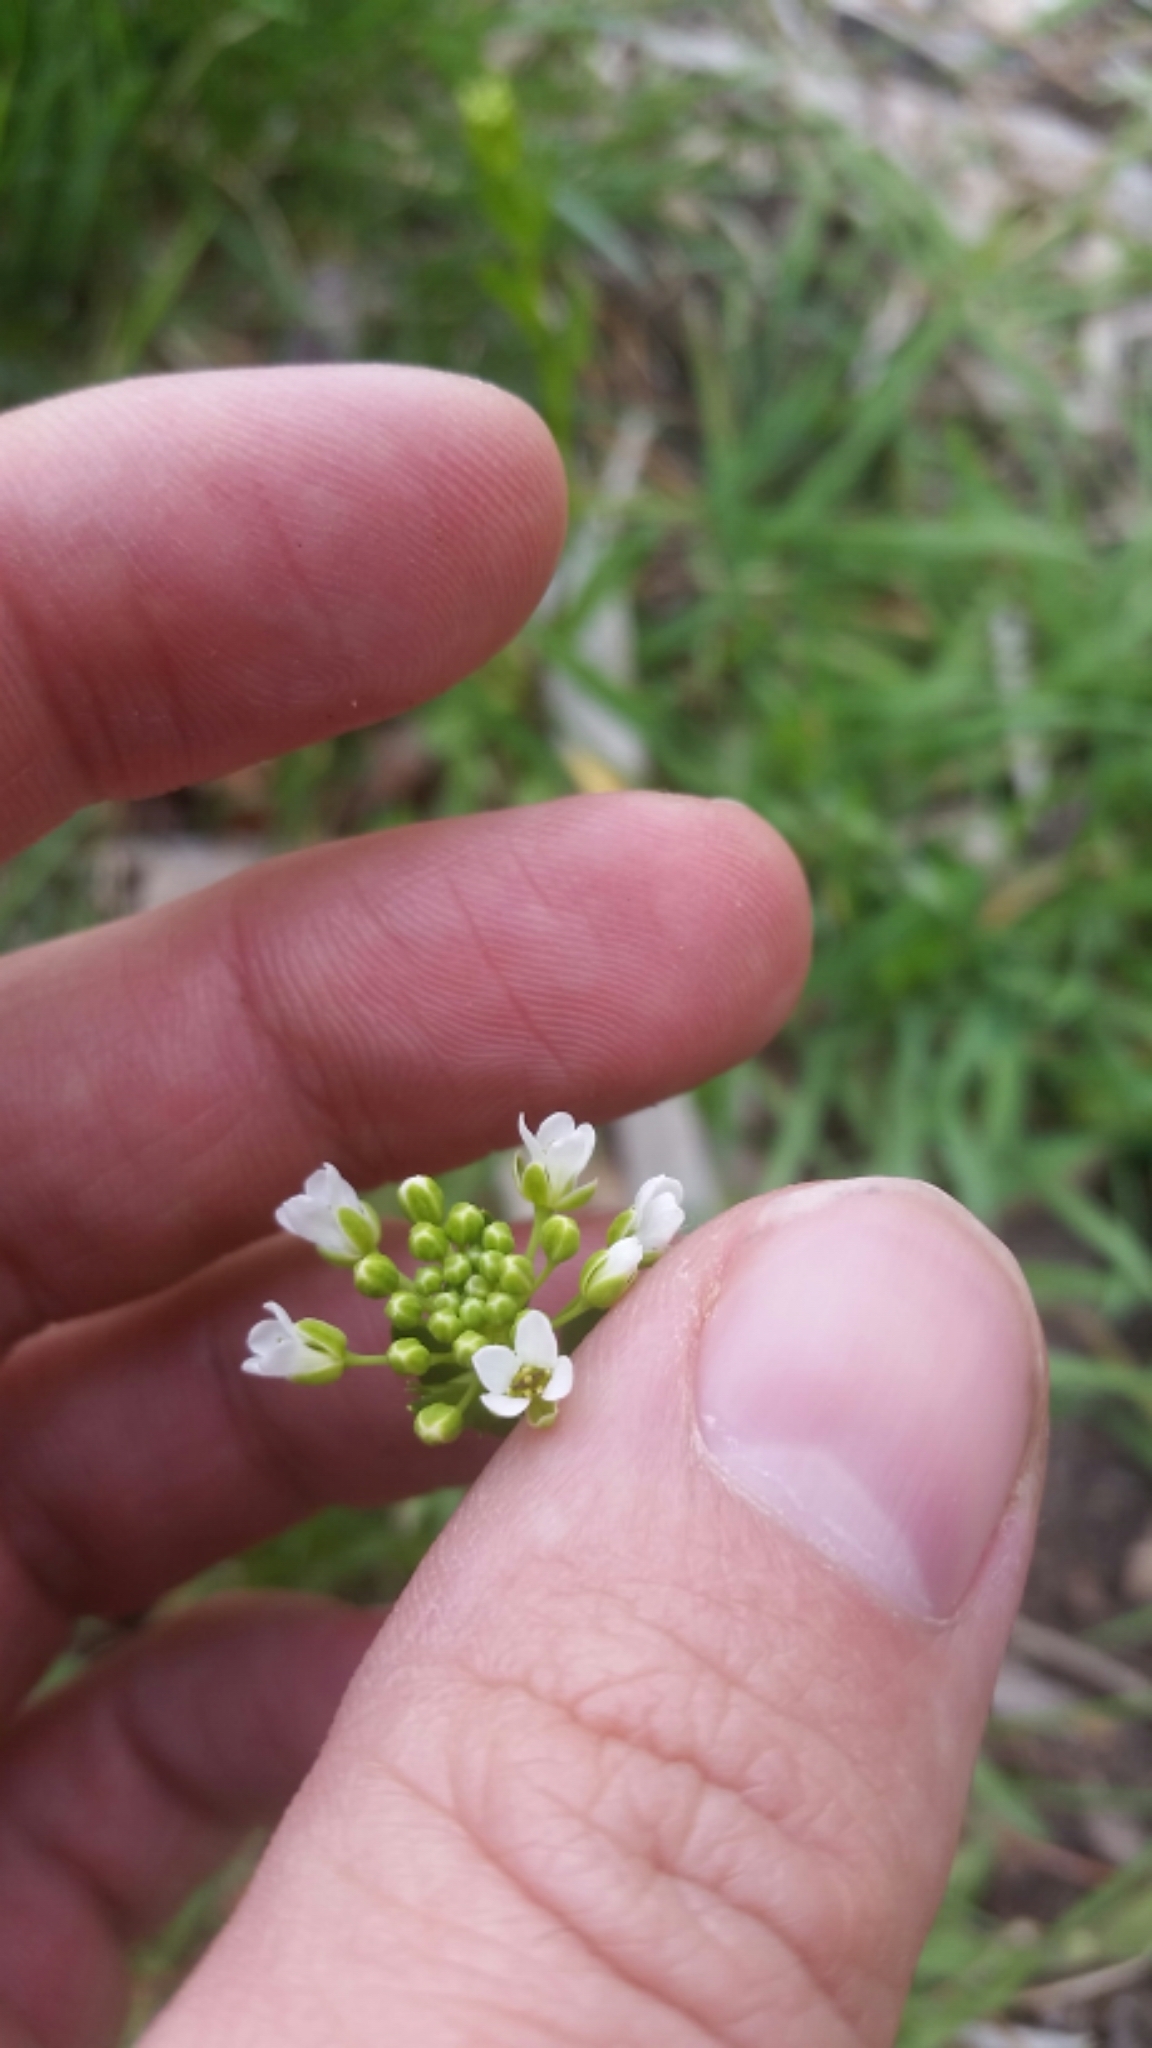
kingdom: Plantae
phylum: Tracheophyta
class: Magnoliopsida
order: Brassicales
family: Brassicaceae
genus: Thlaspi
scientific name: Thlaspi arvense
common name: Field pennycress
